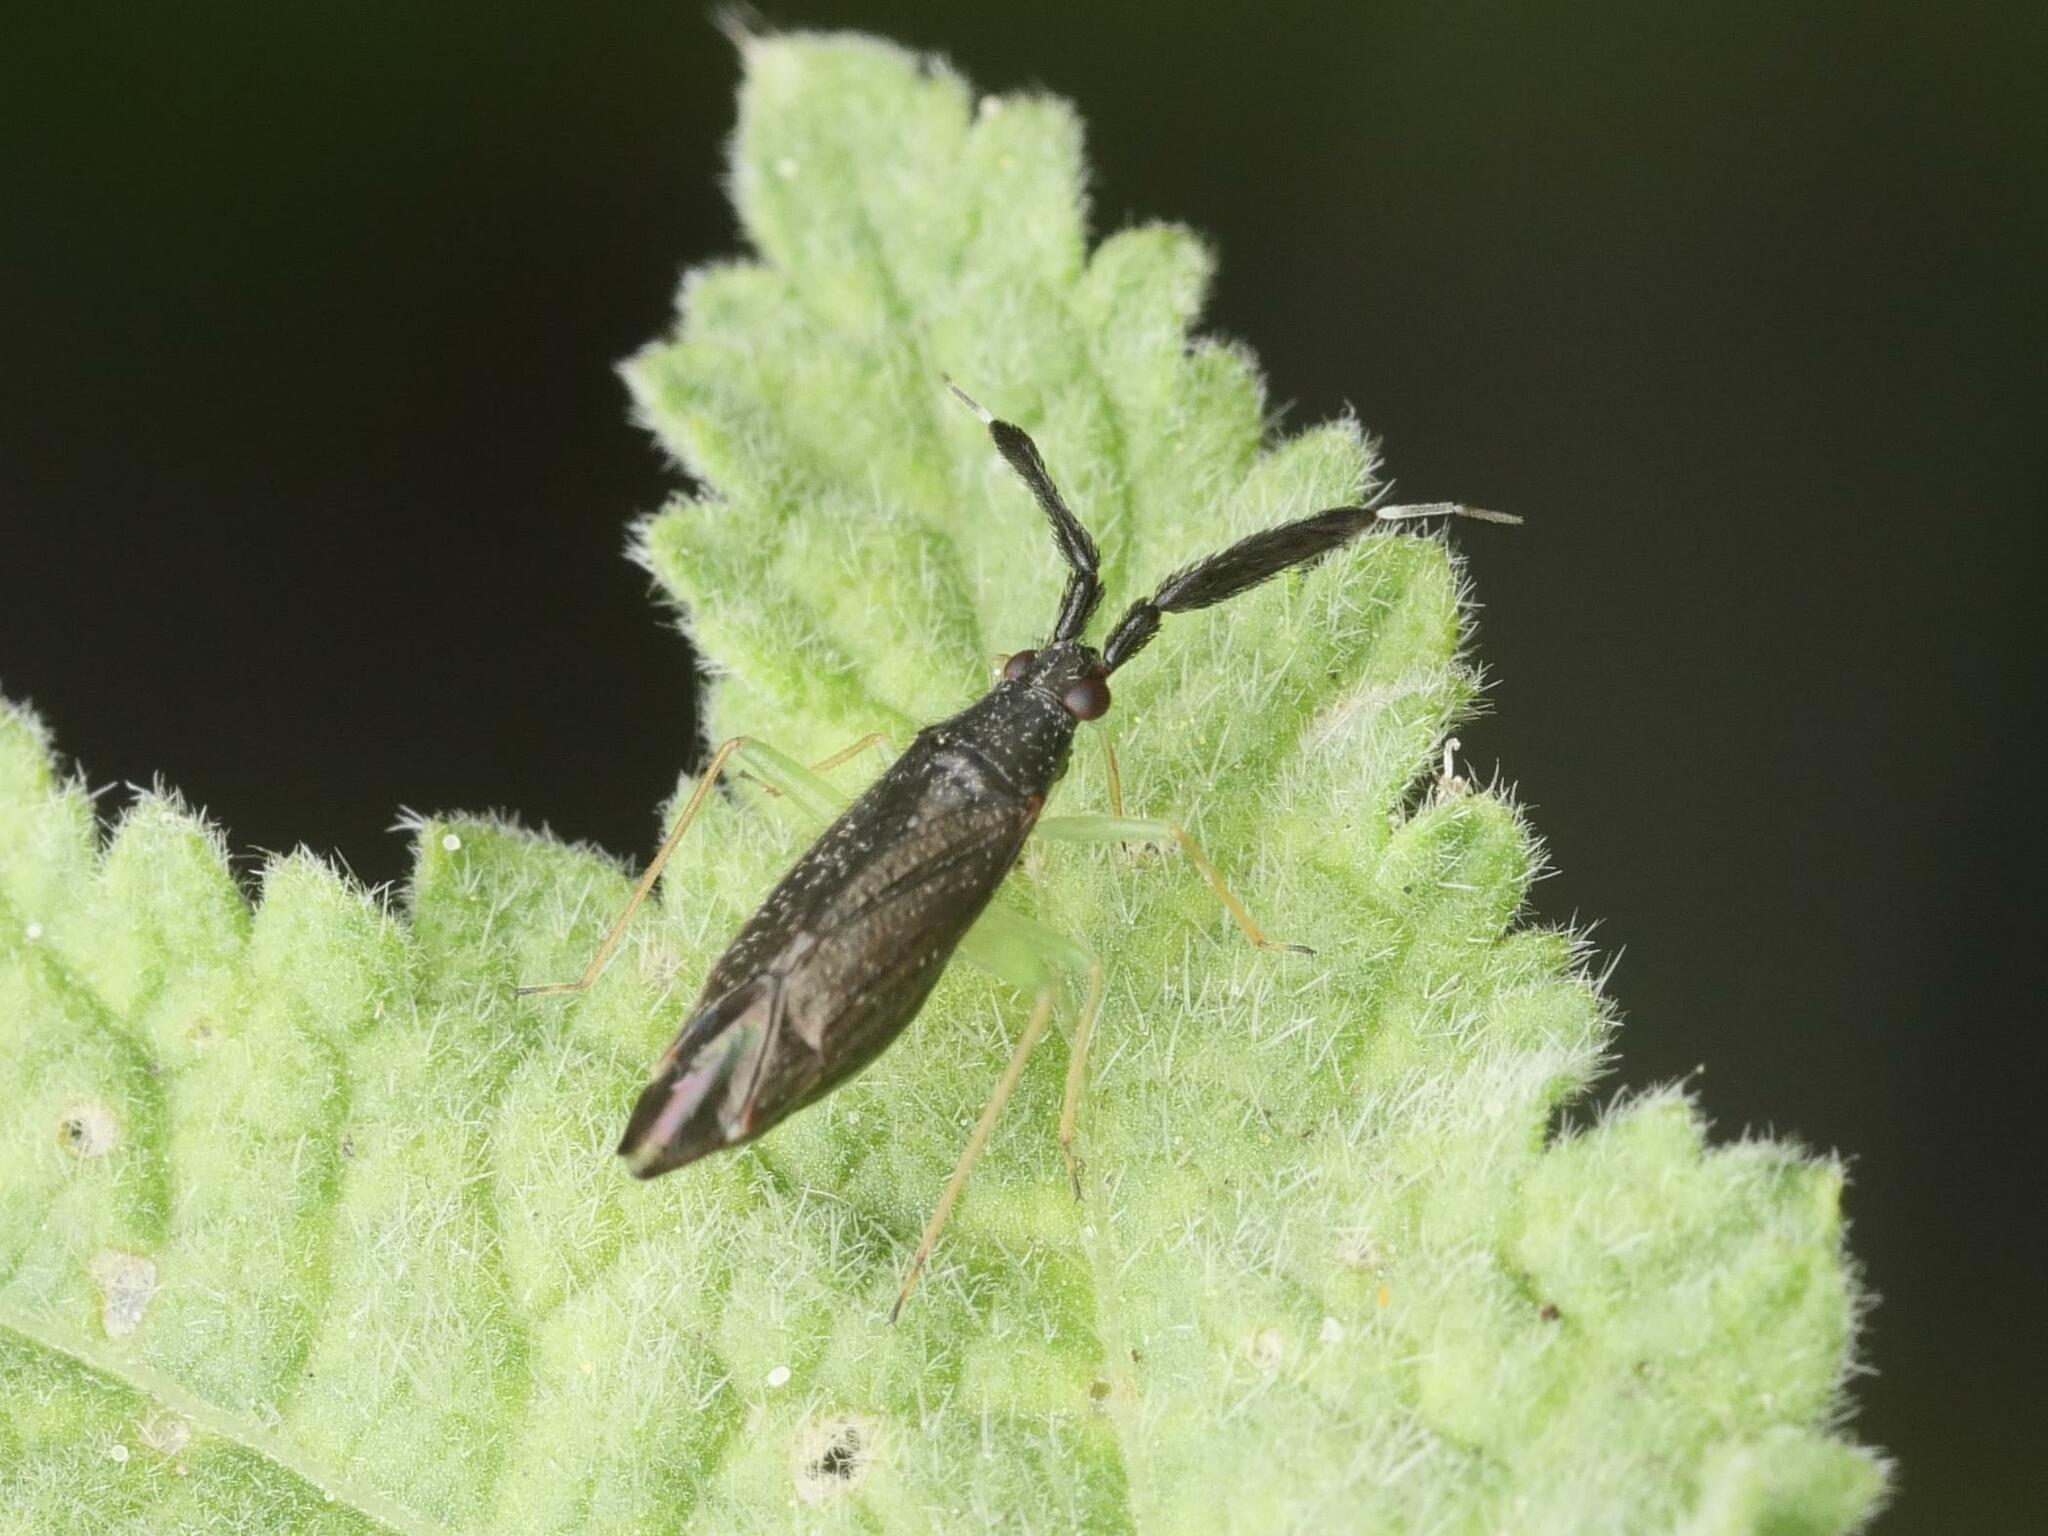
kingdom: Animalia
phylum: Arthropoda
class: Insecta
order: Hemiptera
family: Miridae
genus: Heterotoma
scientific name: Heterotoma planicornis
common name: Plant bug
